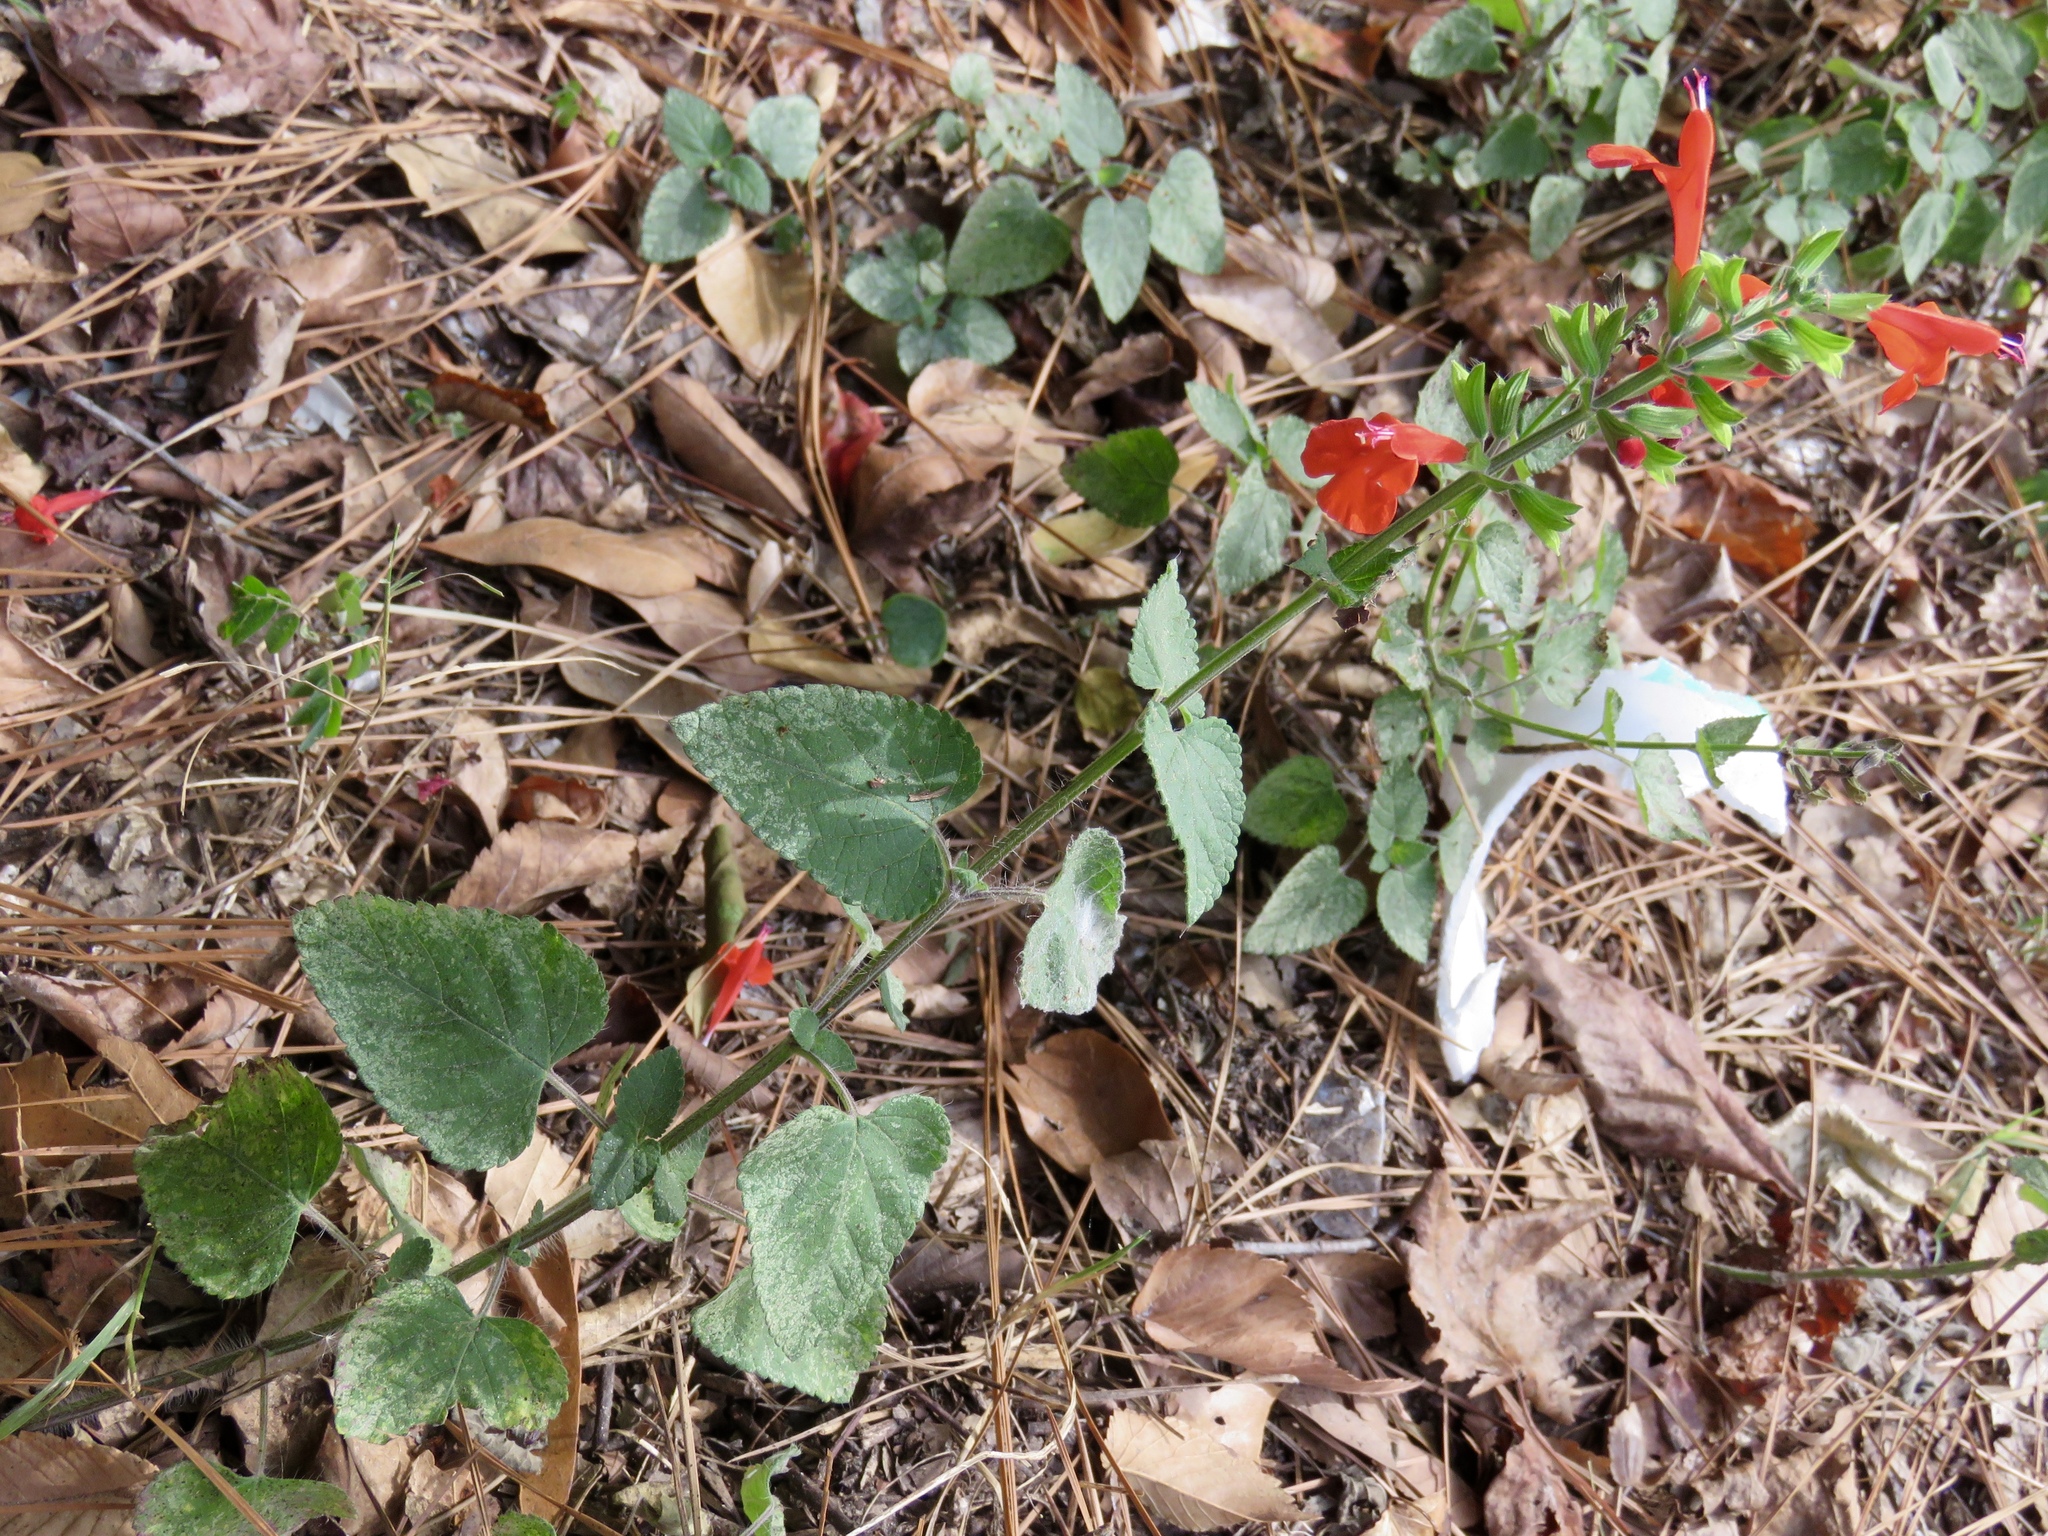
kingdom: Plantae
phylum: Tracheophyta
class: Magnoliopsida
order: Lamiales
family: Lamiaceae
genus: Salvia
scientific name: Salvia coccinea
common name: Blood sage
